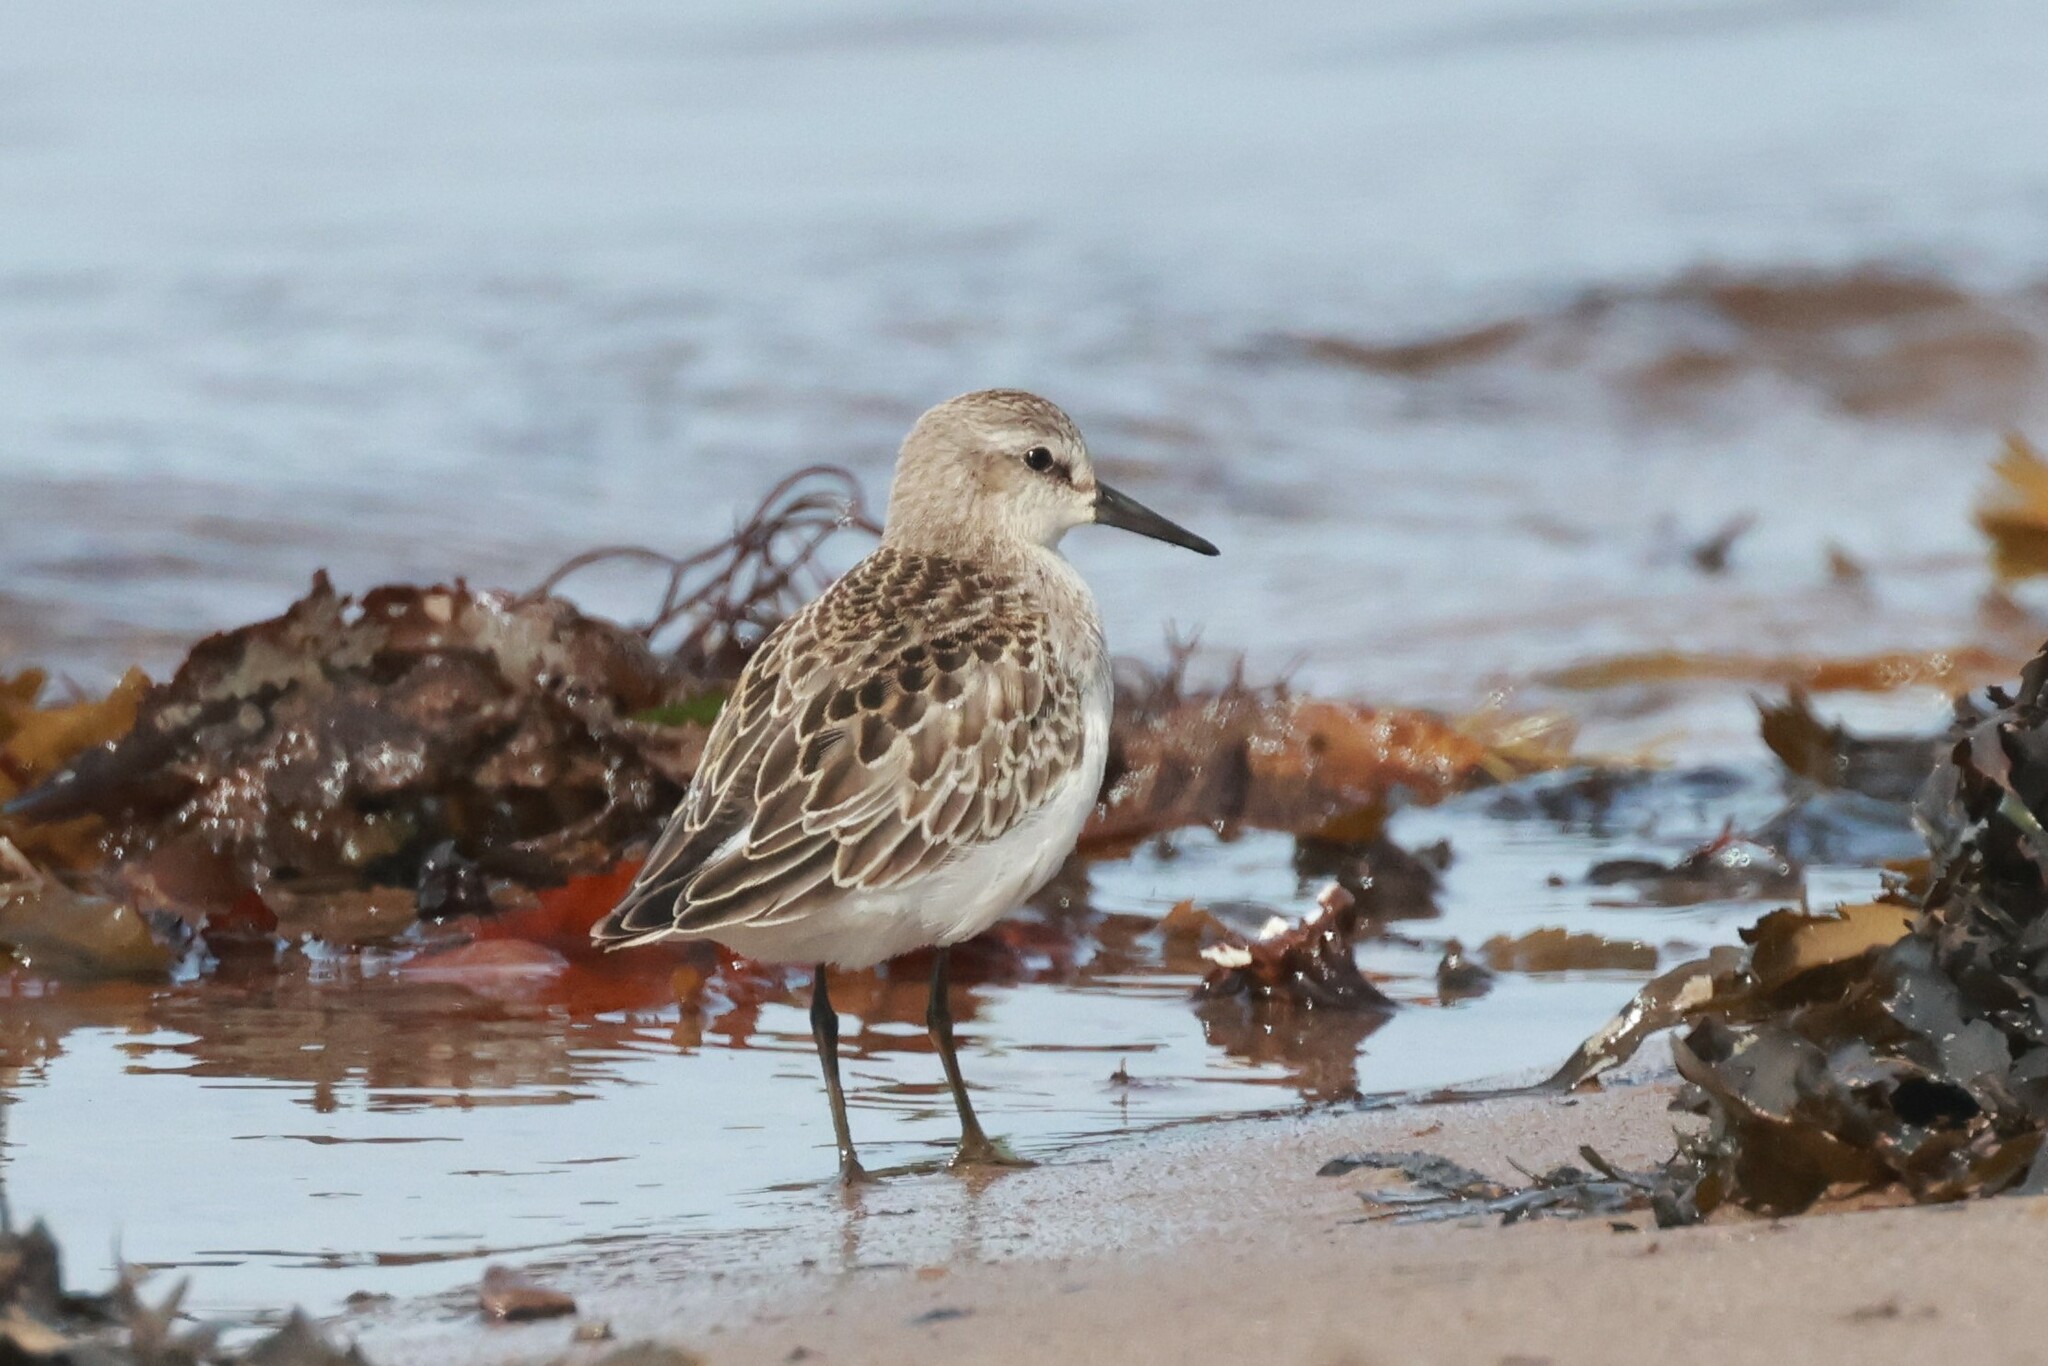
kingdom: Animalia
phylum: Chordata
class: Aves
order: Charadriiformes
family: Scolopacidae
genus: Calidris
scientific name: Calidris pusilla
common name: Semipalmated sandpiper
